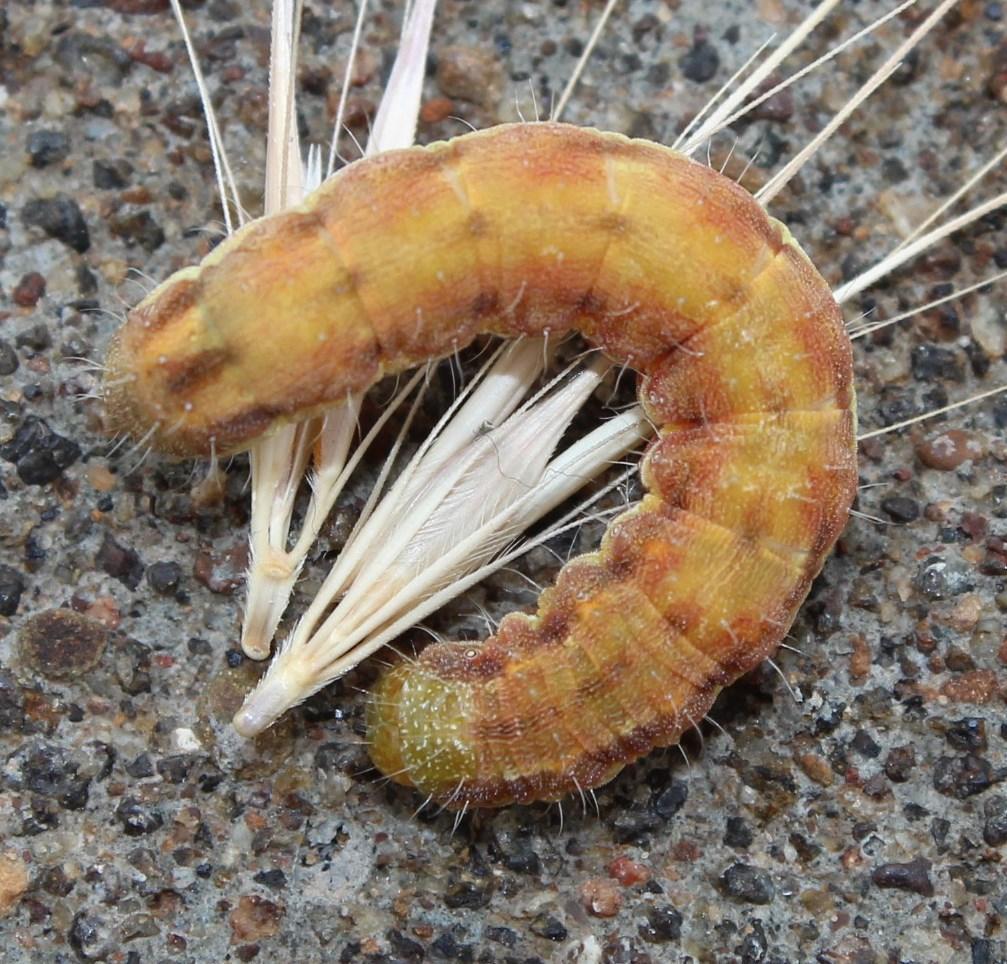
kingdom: Animalia
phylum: Arthropoda
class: Insecta
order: Lepidoptera
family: Noctuidae
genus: Helicoverpa
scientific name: Helicoverpa armigera
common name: Cotton bollworm
